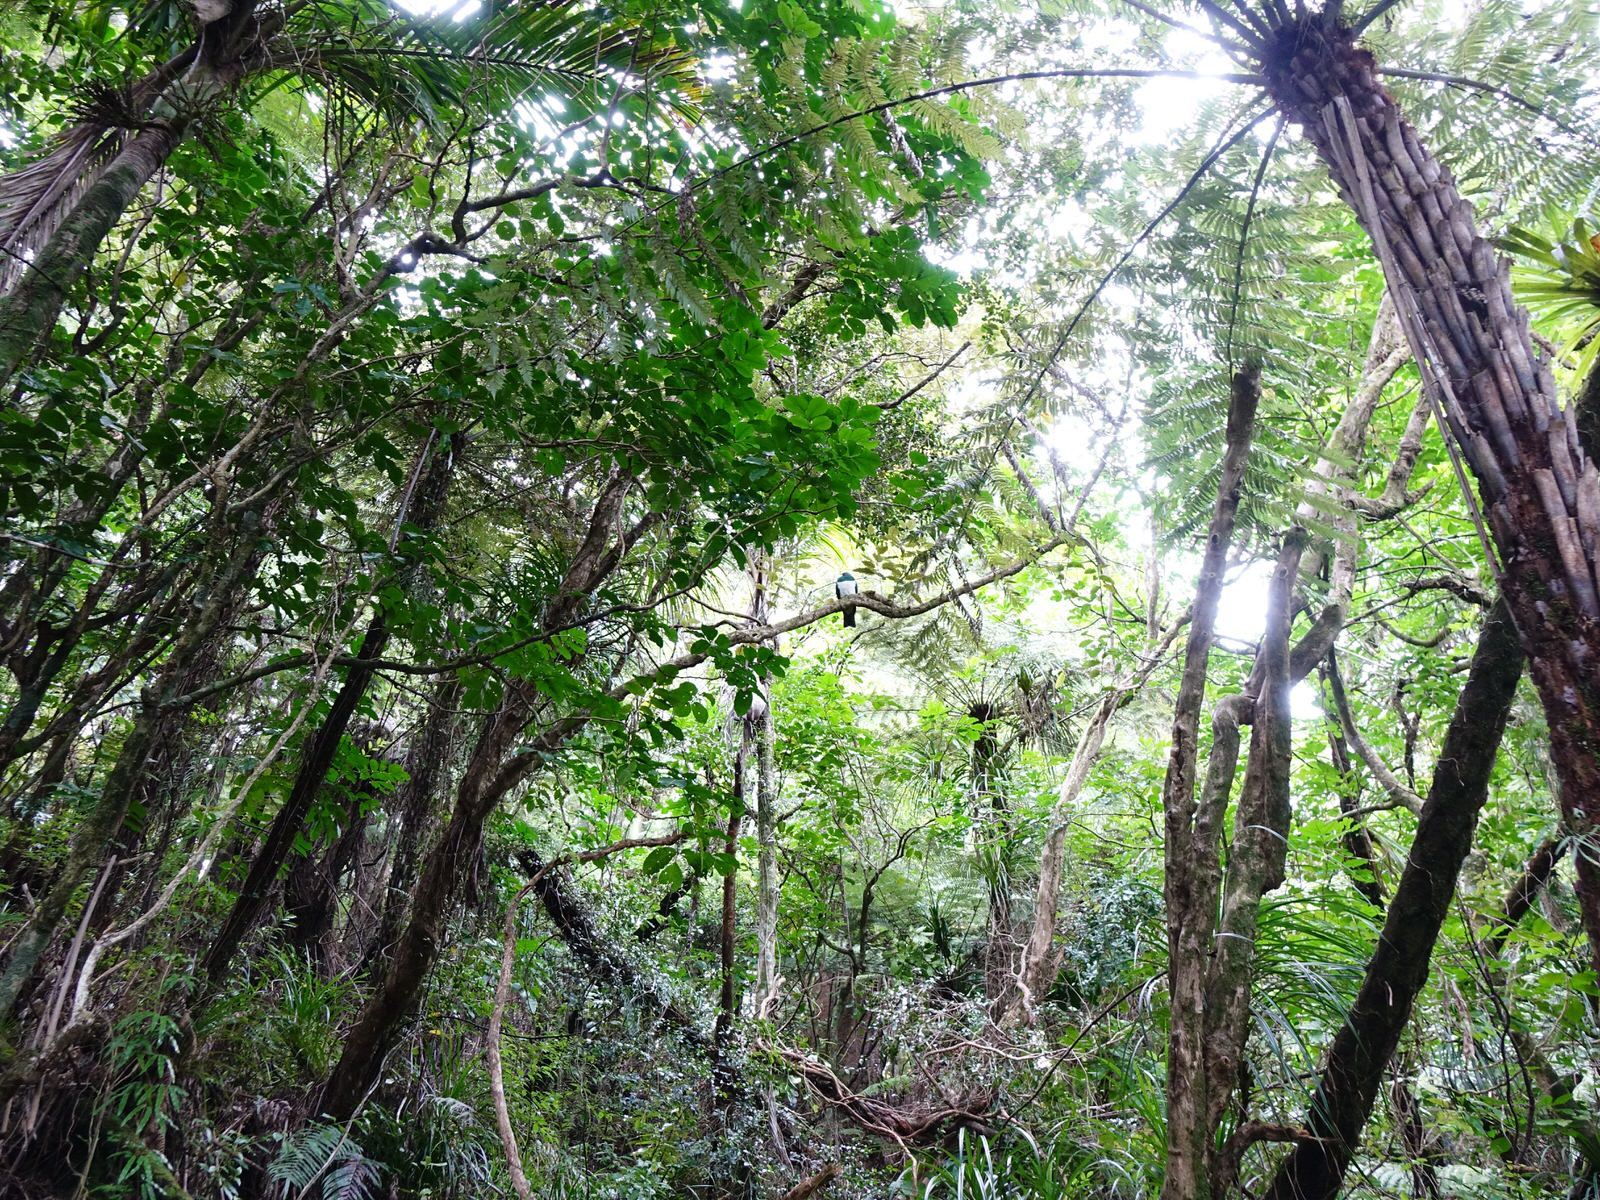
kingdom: Animalia
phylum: Chordata
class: Aves
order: Columbiformes
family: Columbidae
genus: Hemiphaga
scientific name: Hemiphaga novaeseelandiae
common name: New zealand pigeon
